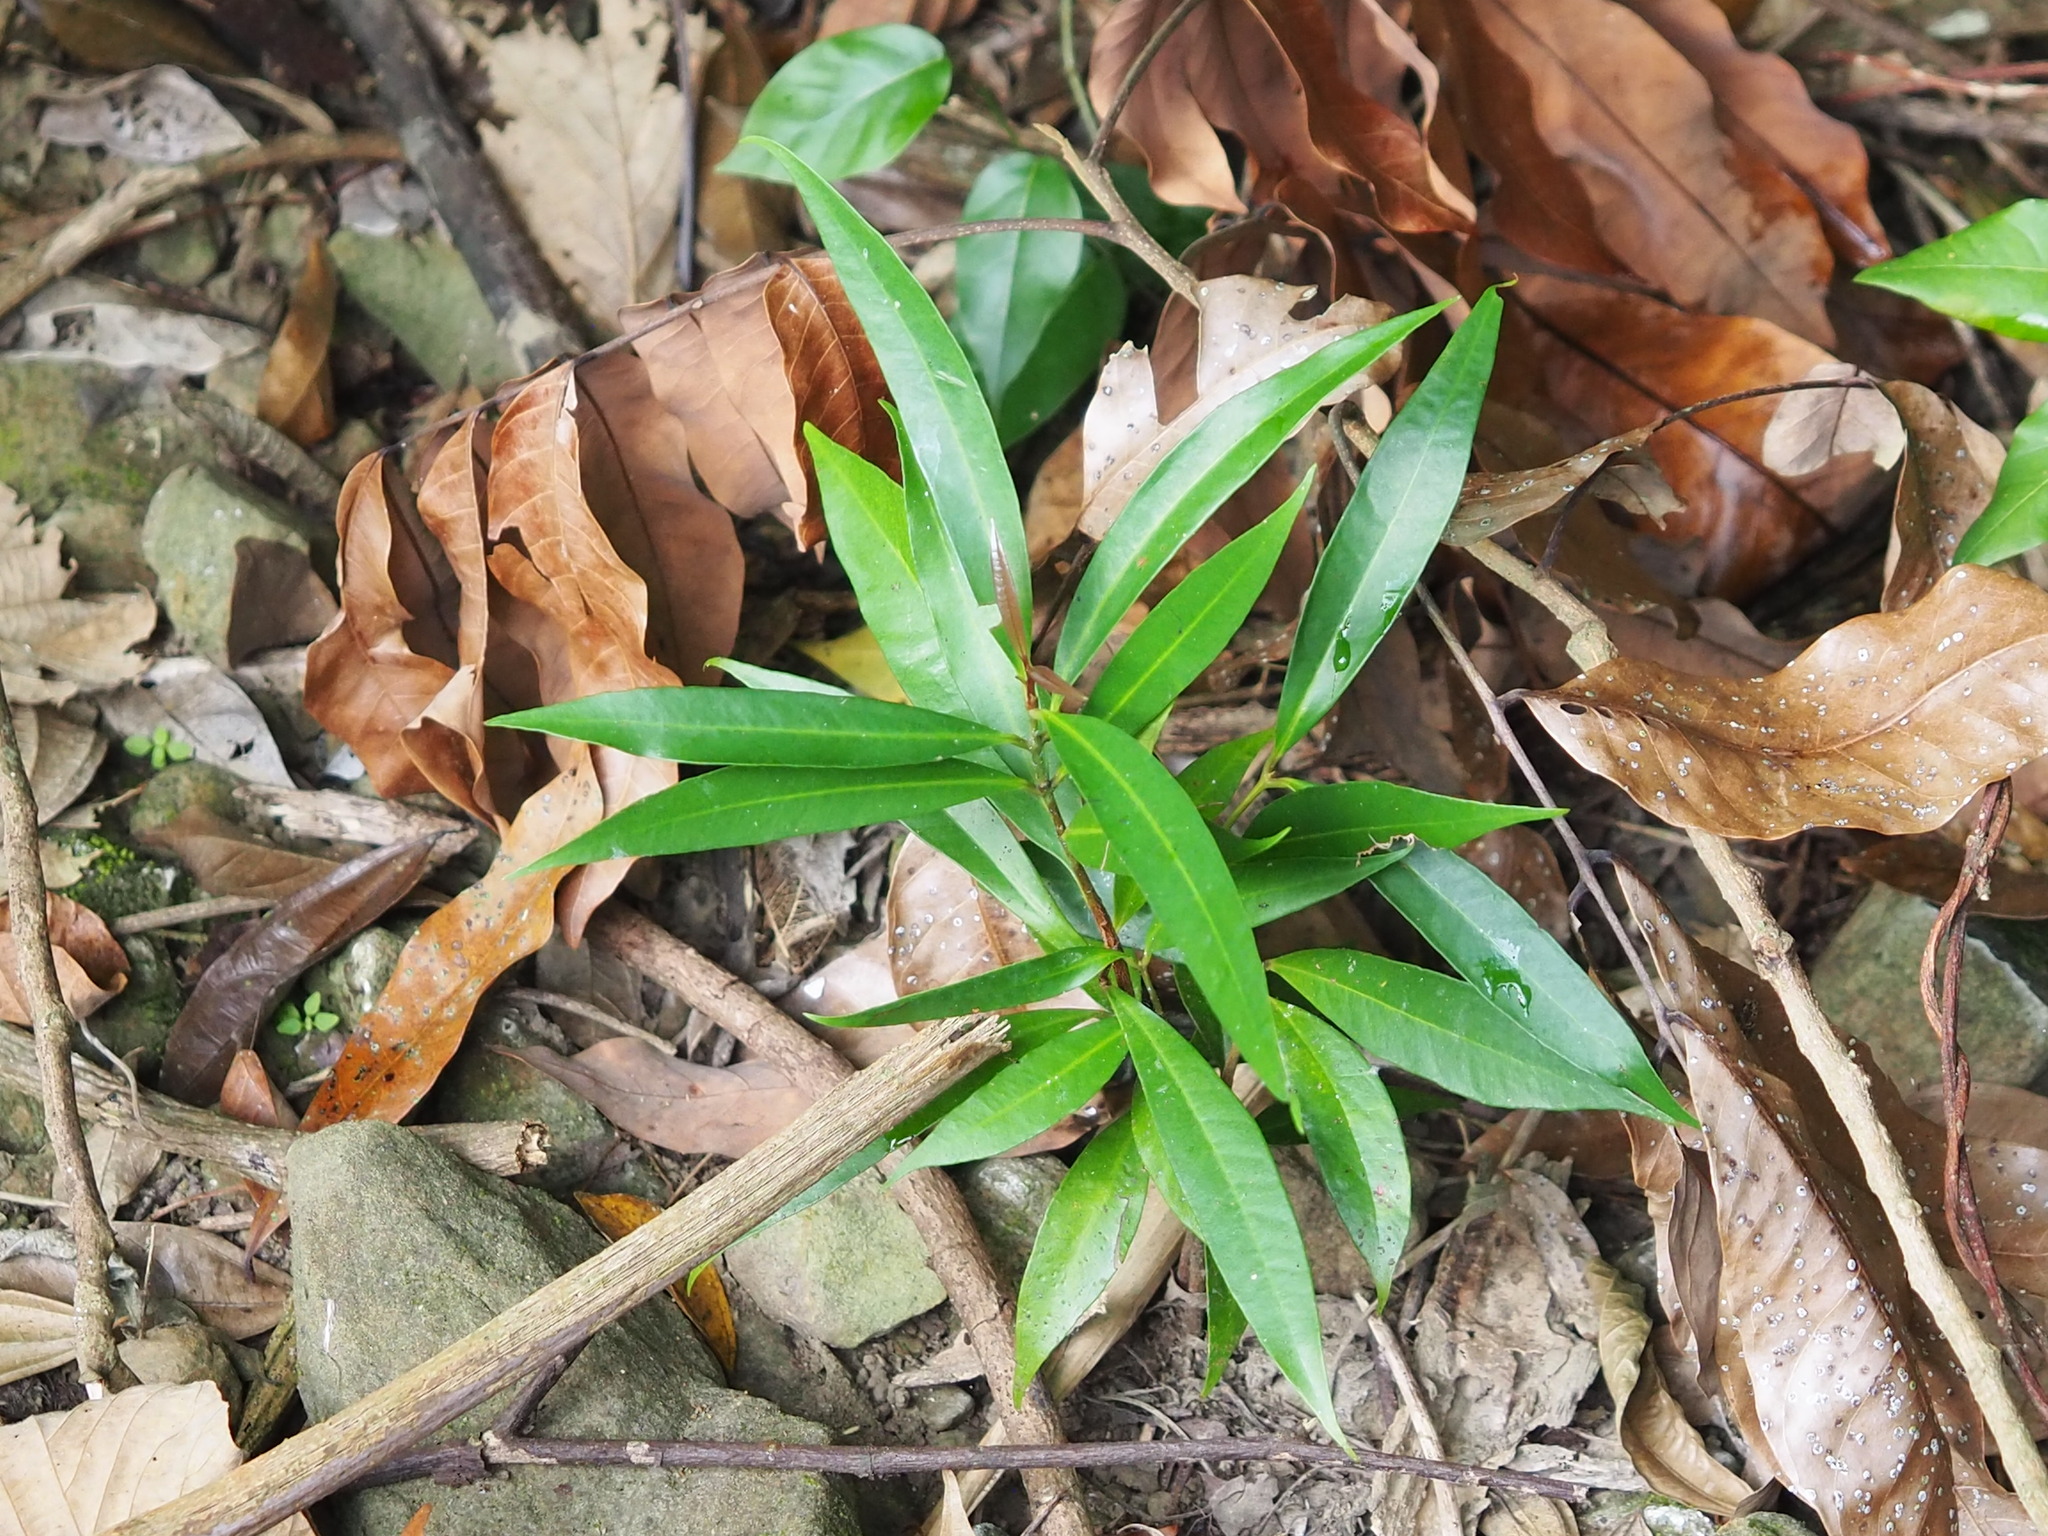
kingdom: Plantae
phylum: Tracheophyta
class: Magnoliopsida
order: Myrtales
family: Myrtaceae
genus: Syzygium
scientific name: Syzygium jambos
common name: Malabar plum
